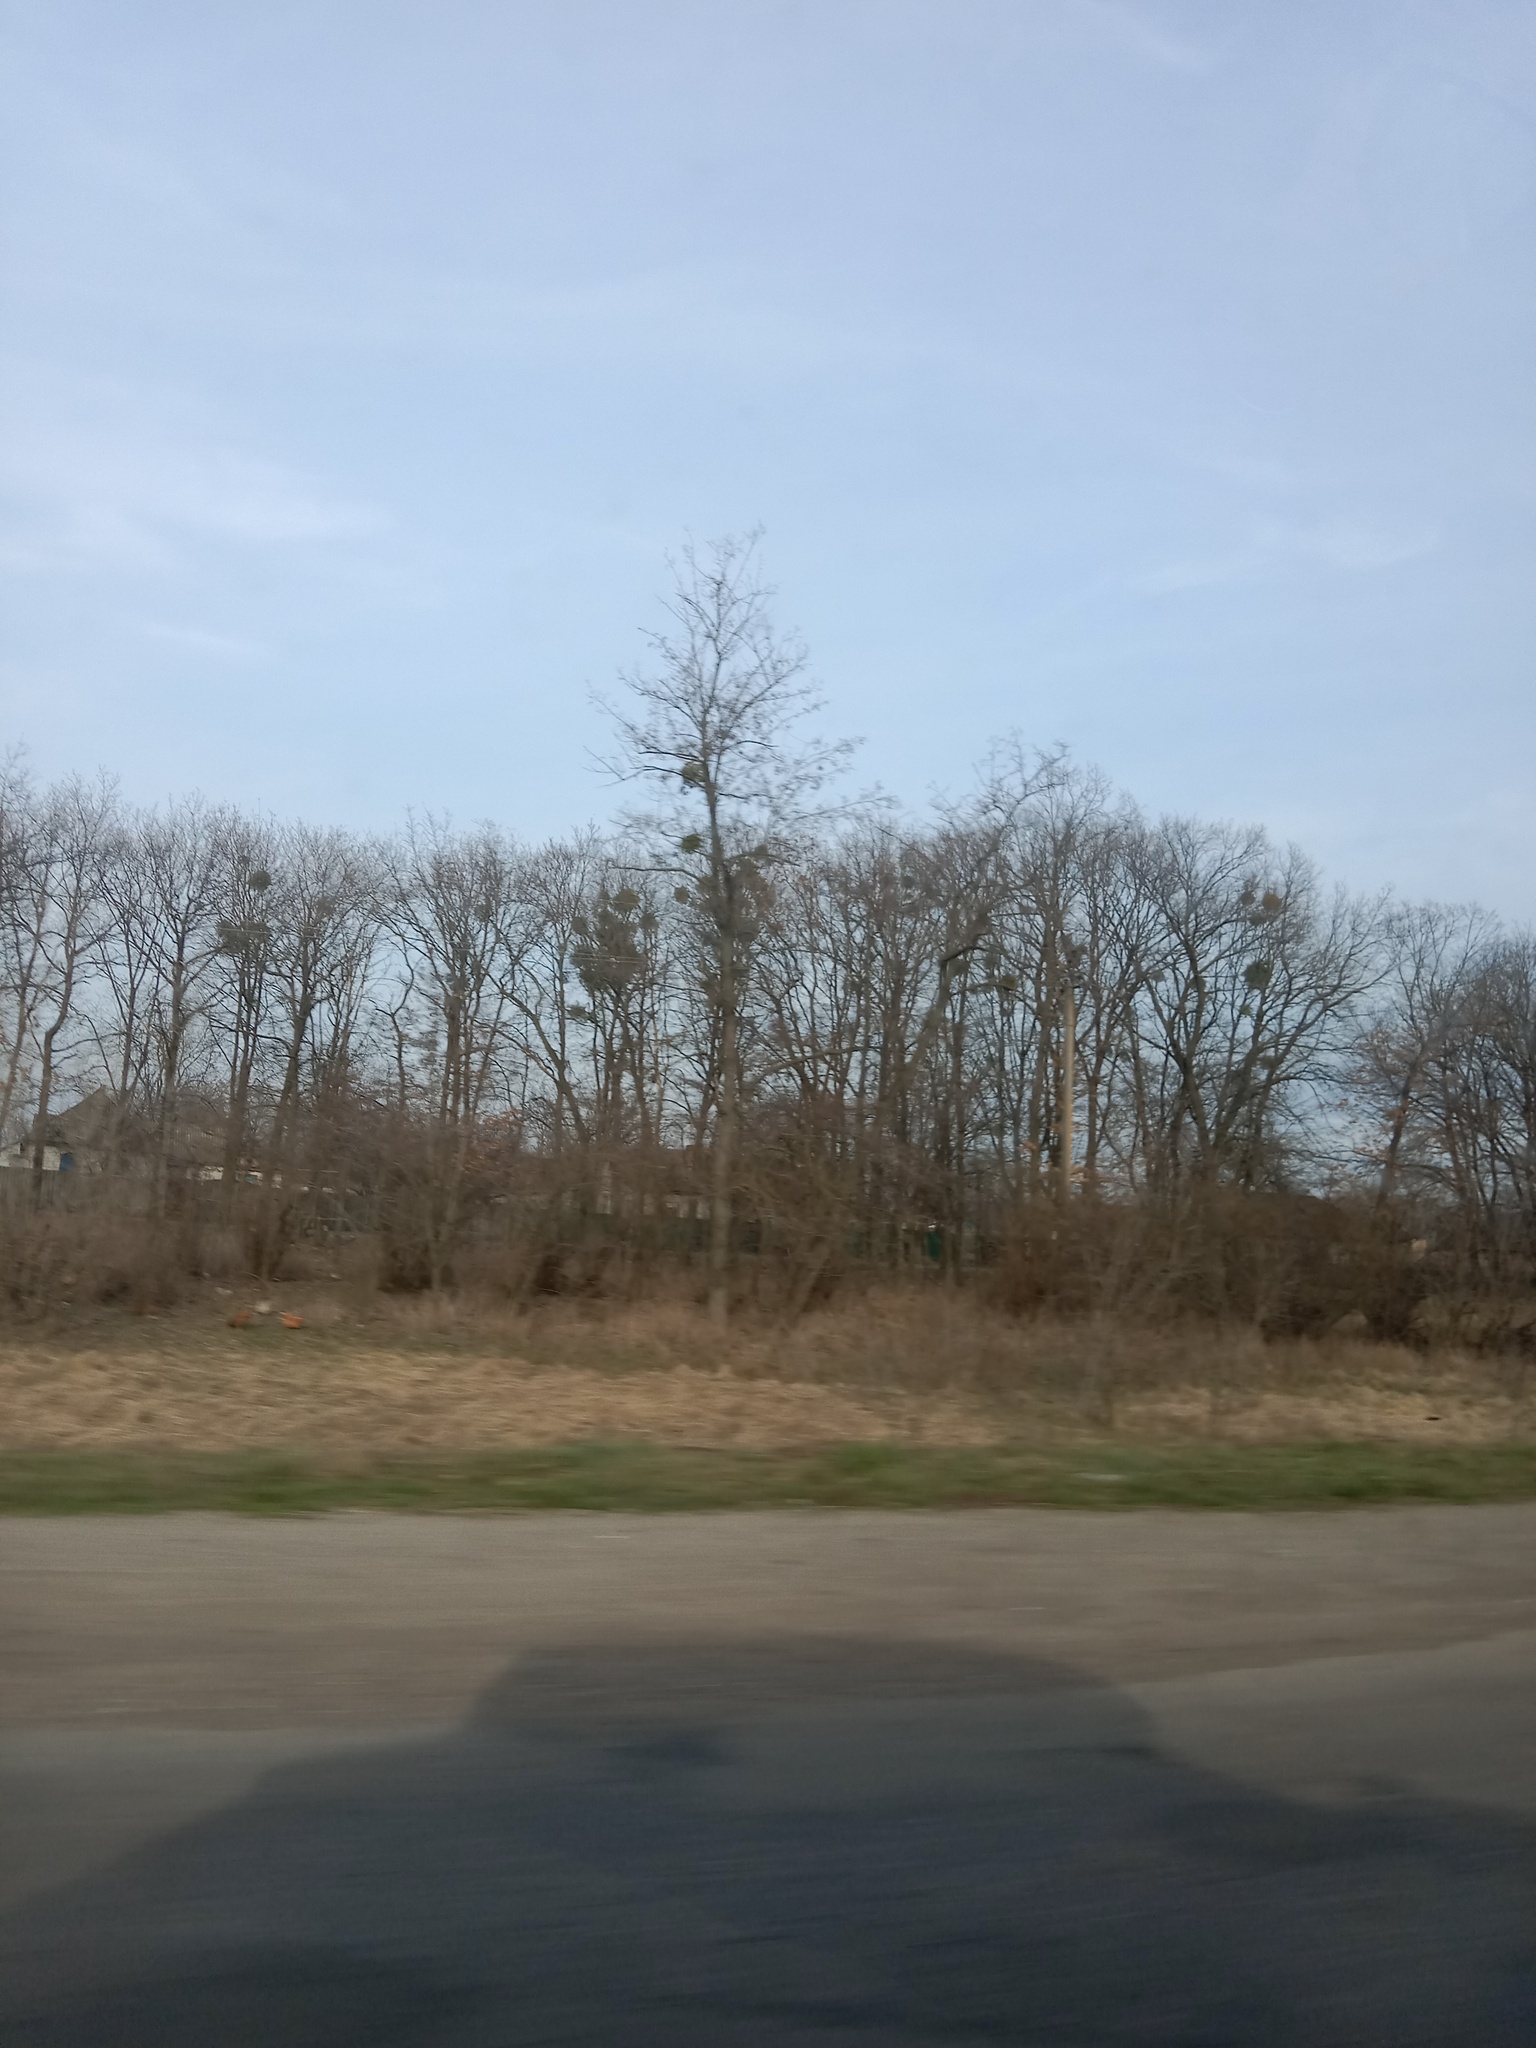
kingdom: Plantae
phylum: Tracheophyta
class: Magnoliopsida
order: Santalales
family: Viscaceae
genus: Viscum
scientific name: Viscum album
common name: Mistletoe
